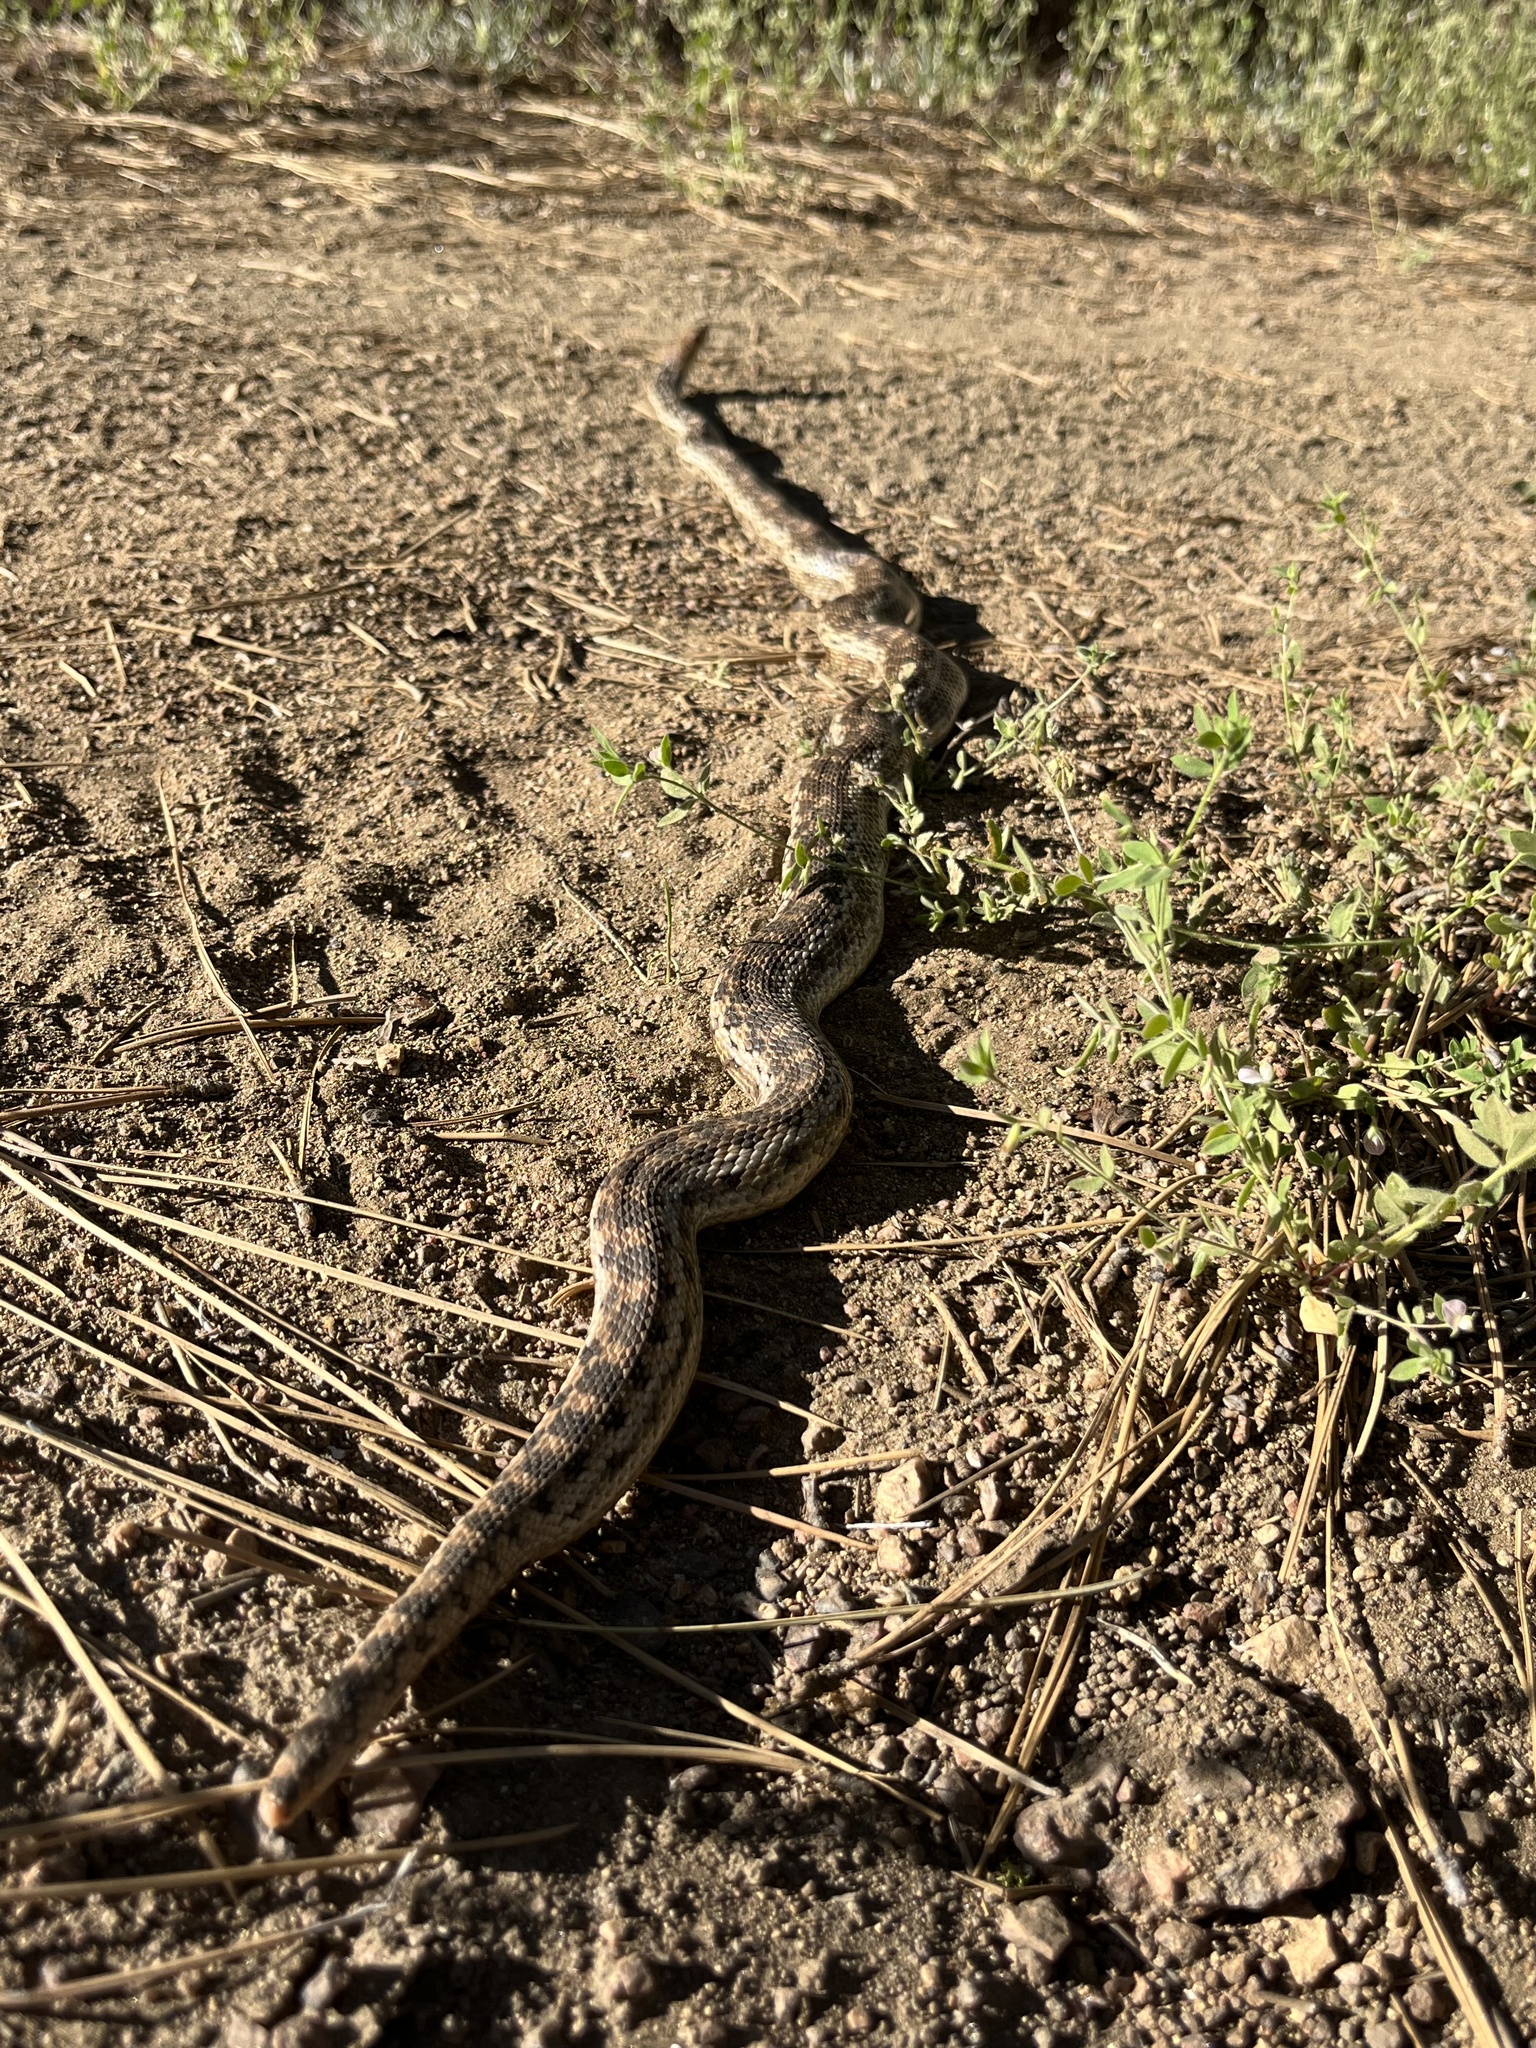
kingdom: Animalia
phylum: Chordata
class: Squamata
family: Colubridae
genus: Pituophis
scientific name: Pituophis catenifer
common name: Gopher snake
